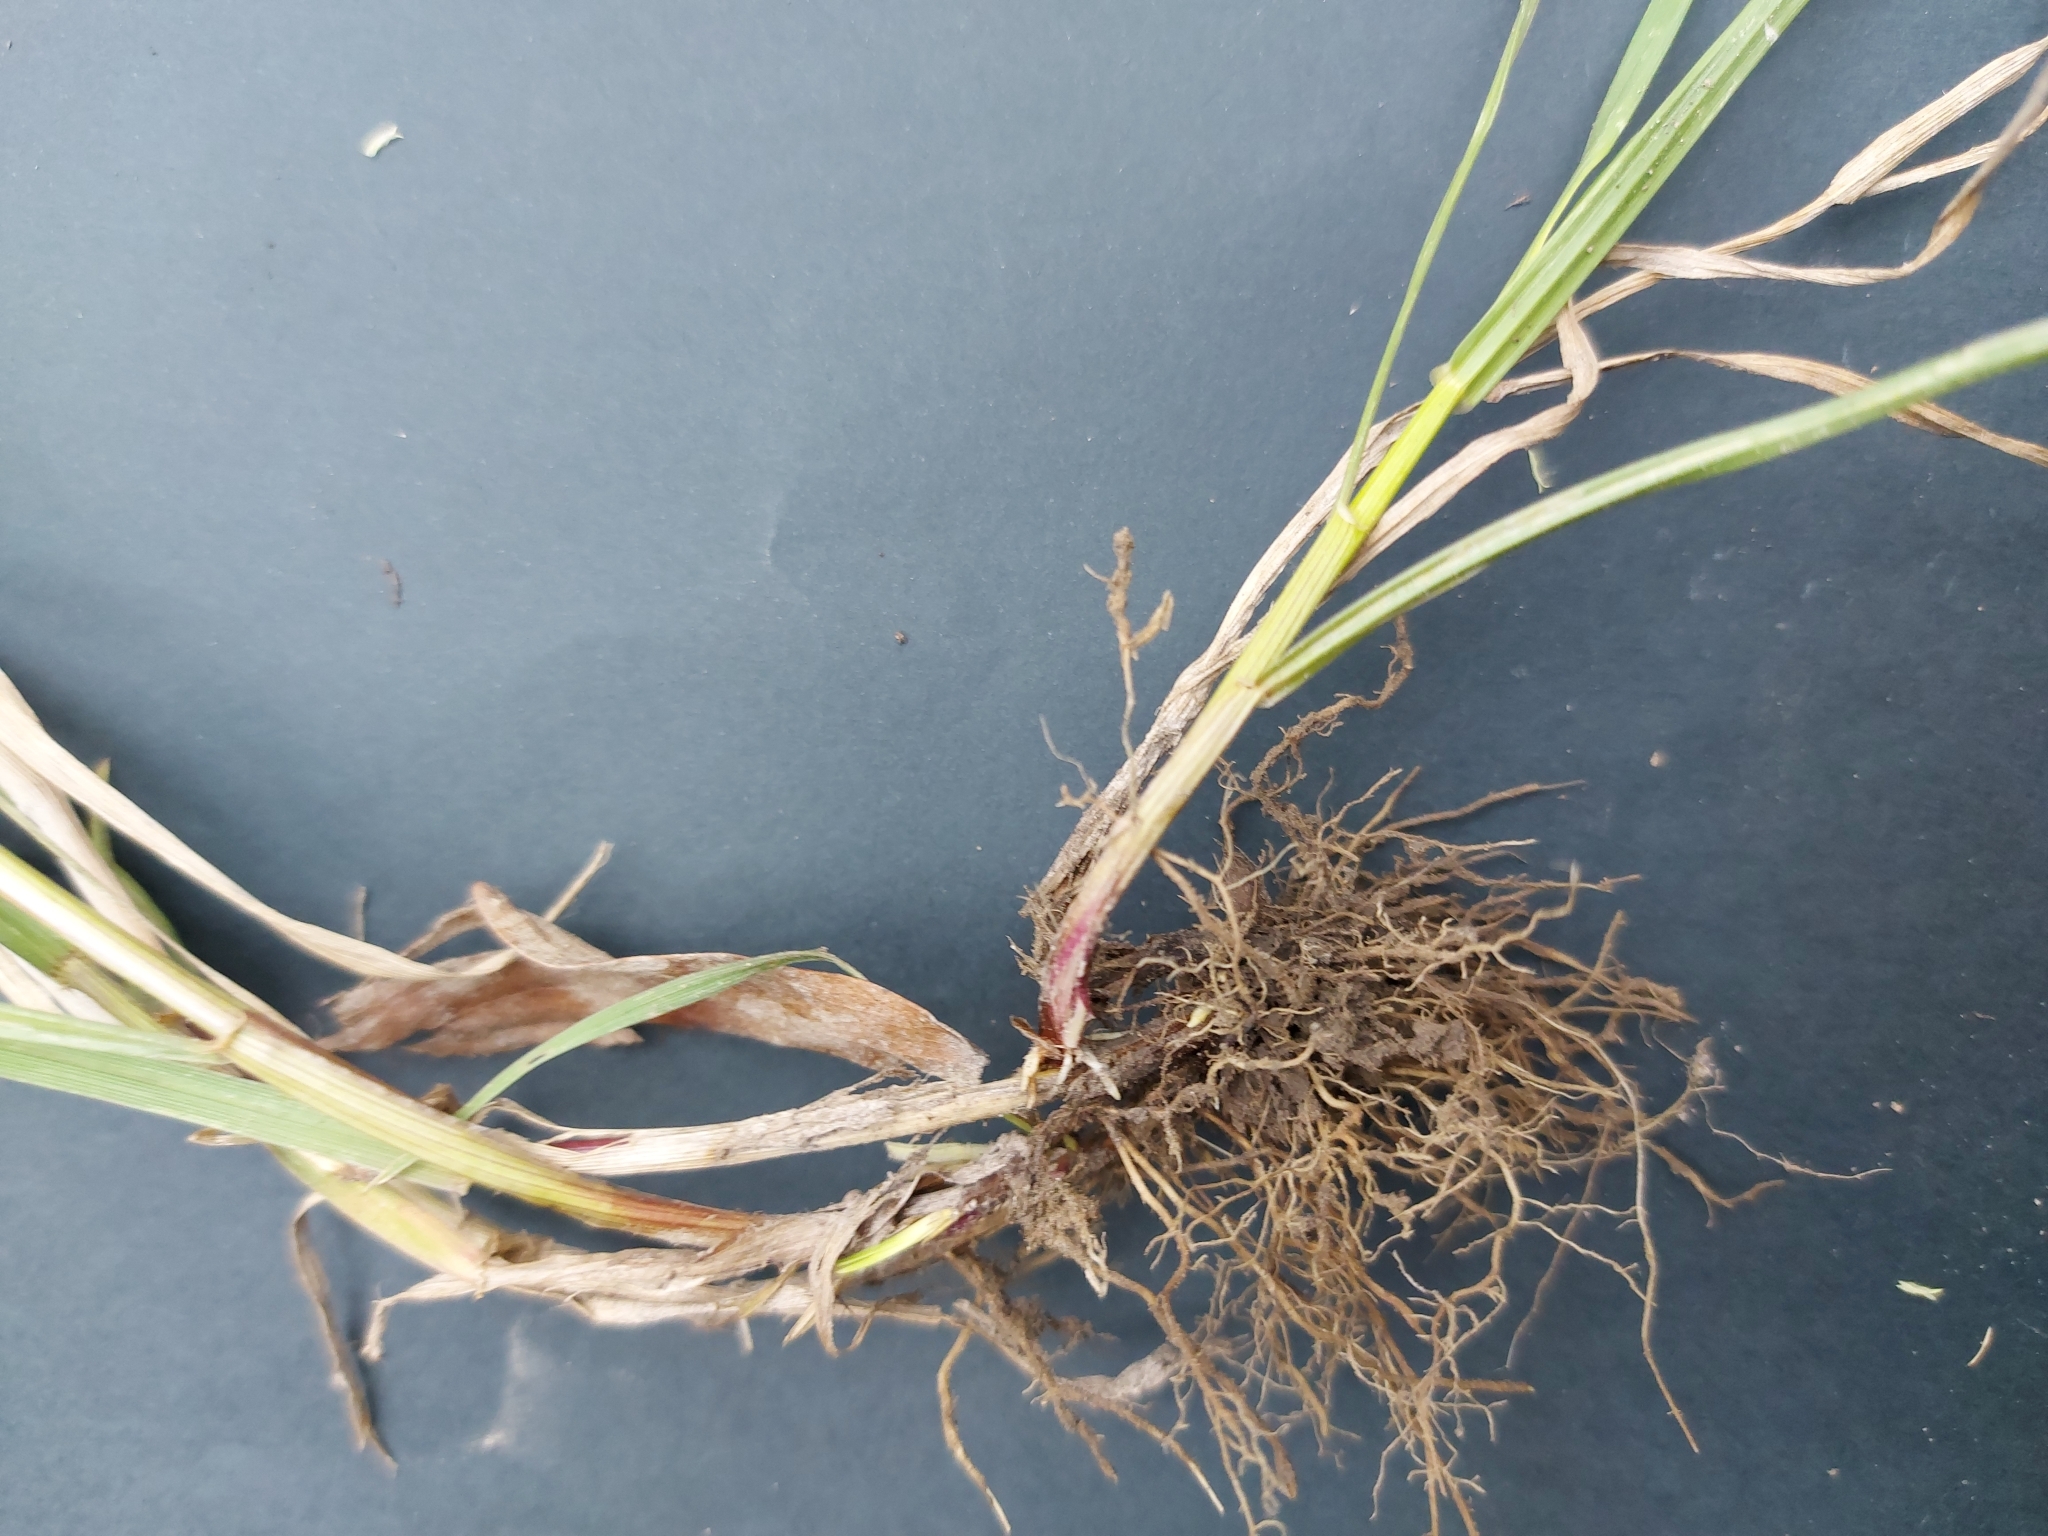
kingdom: Plantae
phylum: Tracheophyta
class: Liliopsida
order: Poales
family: Poaceae
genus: Lolium
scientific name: Lolium perenne
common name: Perennial ryegrass
